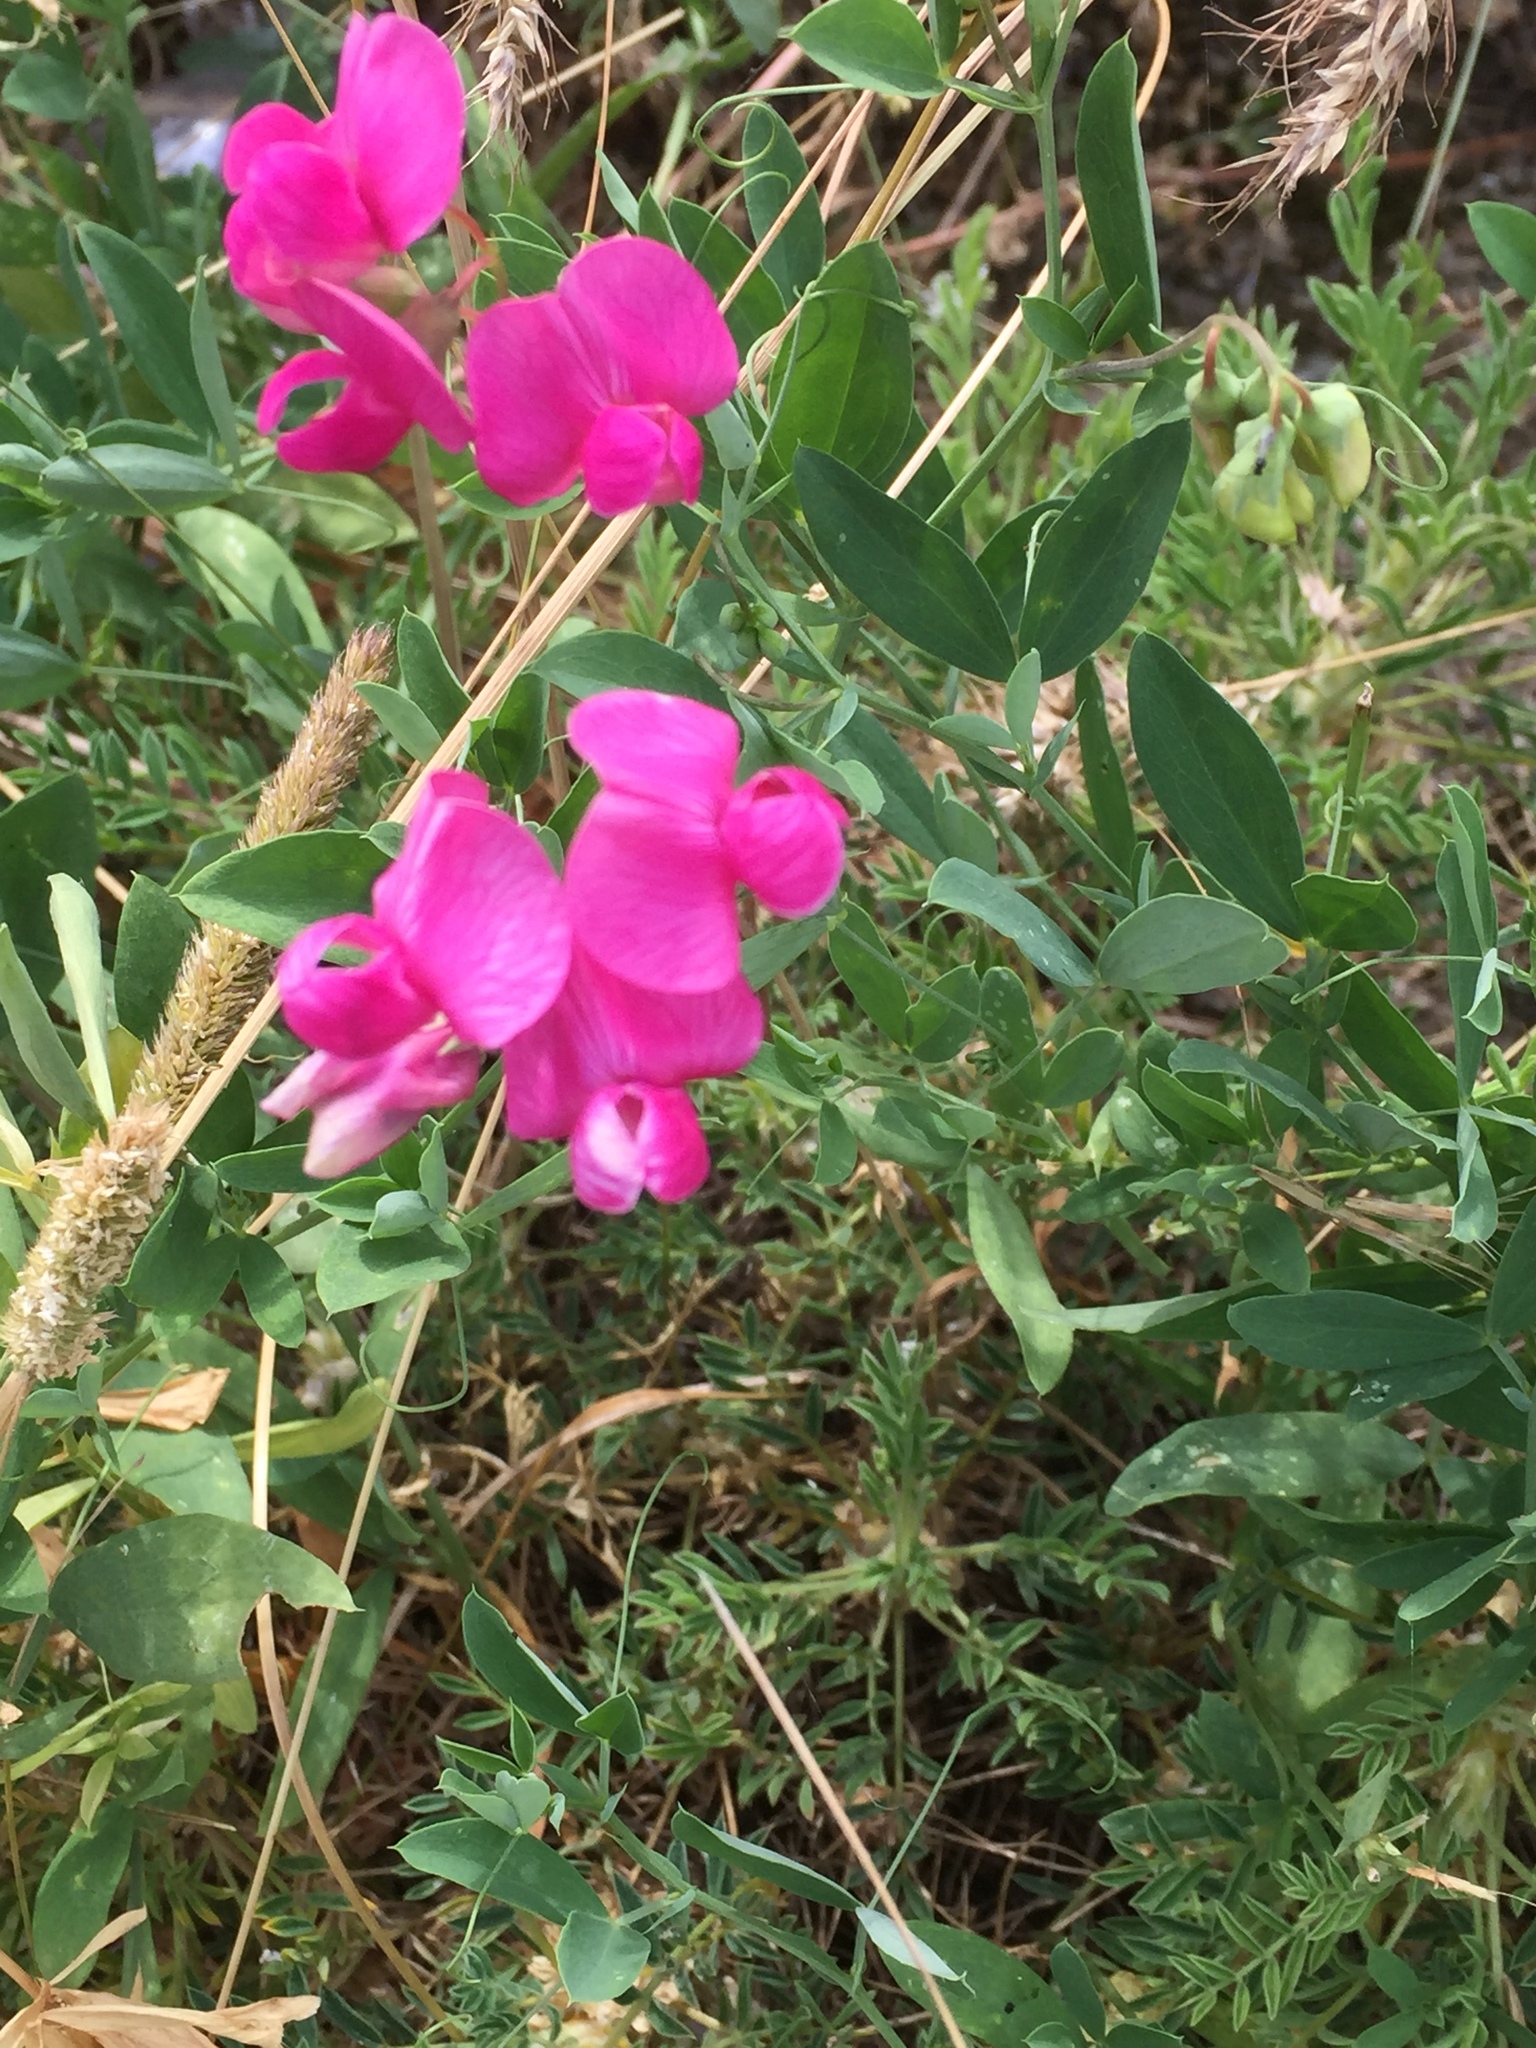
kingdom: Plantae
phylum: Tracheophyta
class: Magnoliopsida
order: Fabales
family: Fabaceae
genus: Lathyrus
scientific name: Lathyrus tuberosus
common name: Tuberous pea
